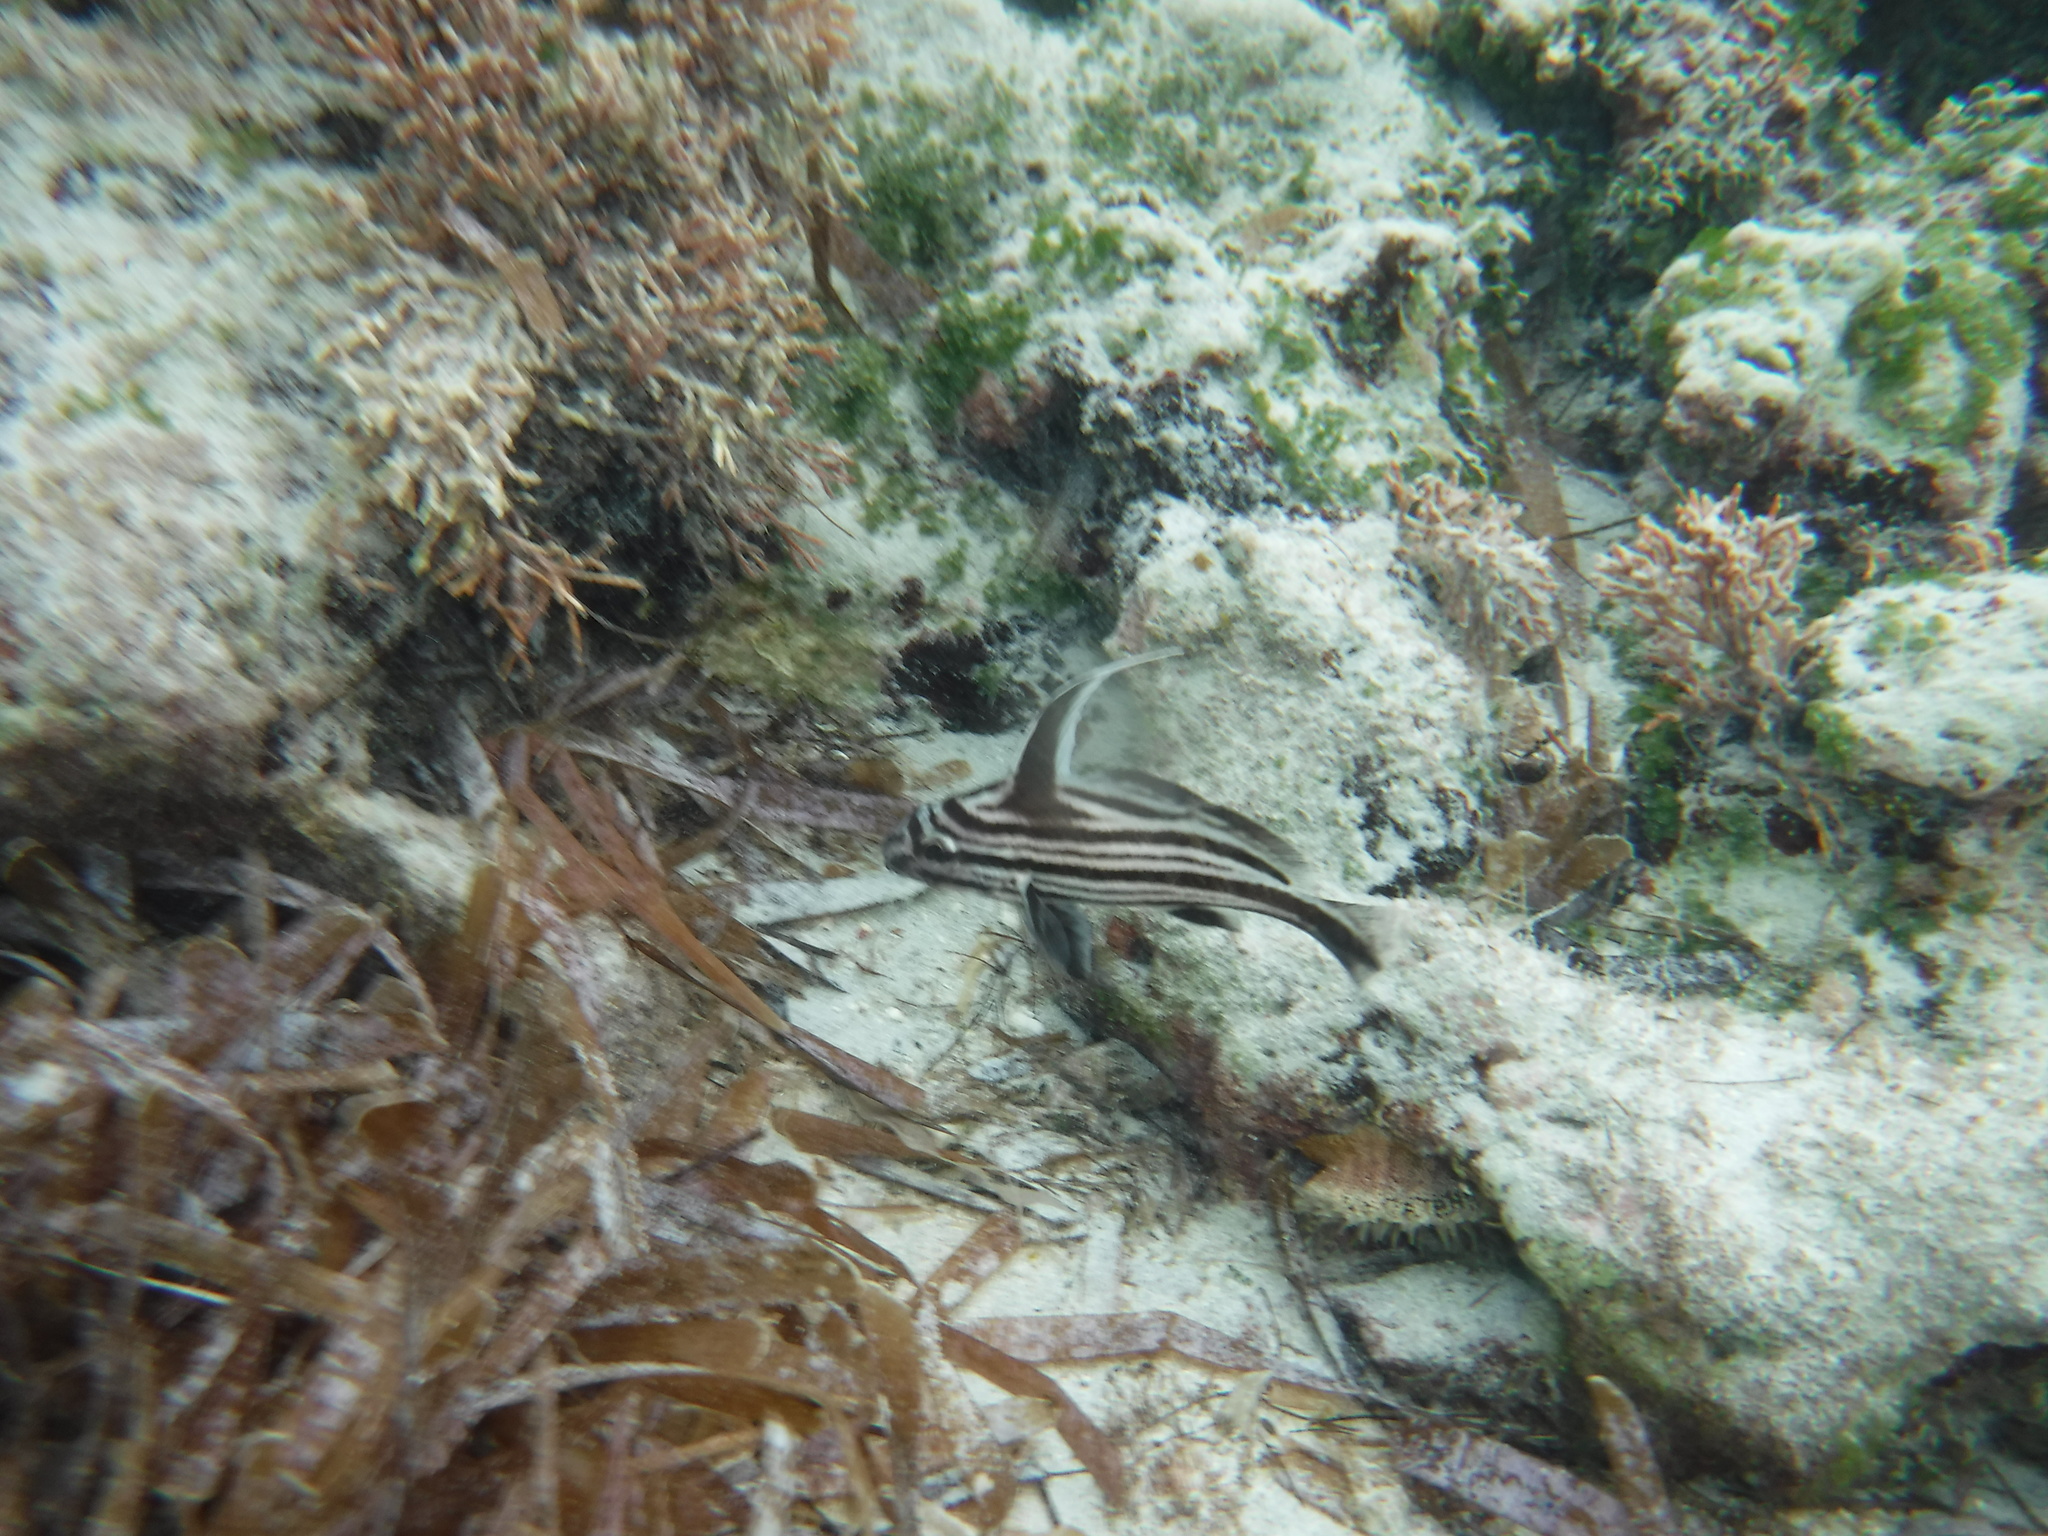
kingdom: Animalia
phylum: Chordata
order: Perciformes
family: Sciaenidae
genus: Pareques
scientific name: Pareques acuminatus
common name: High-hat
